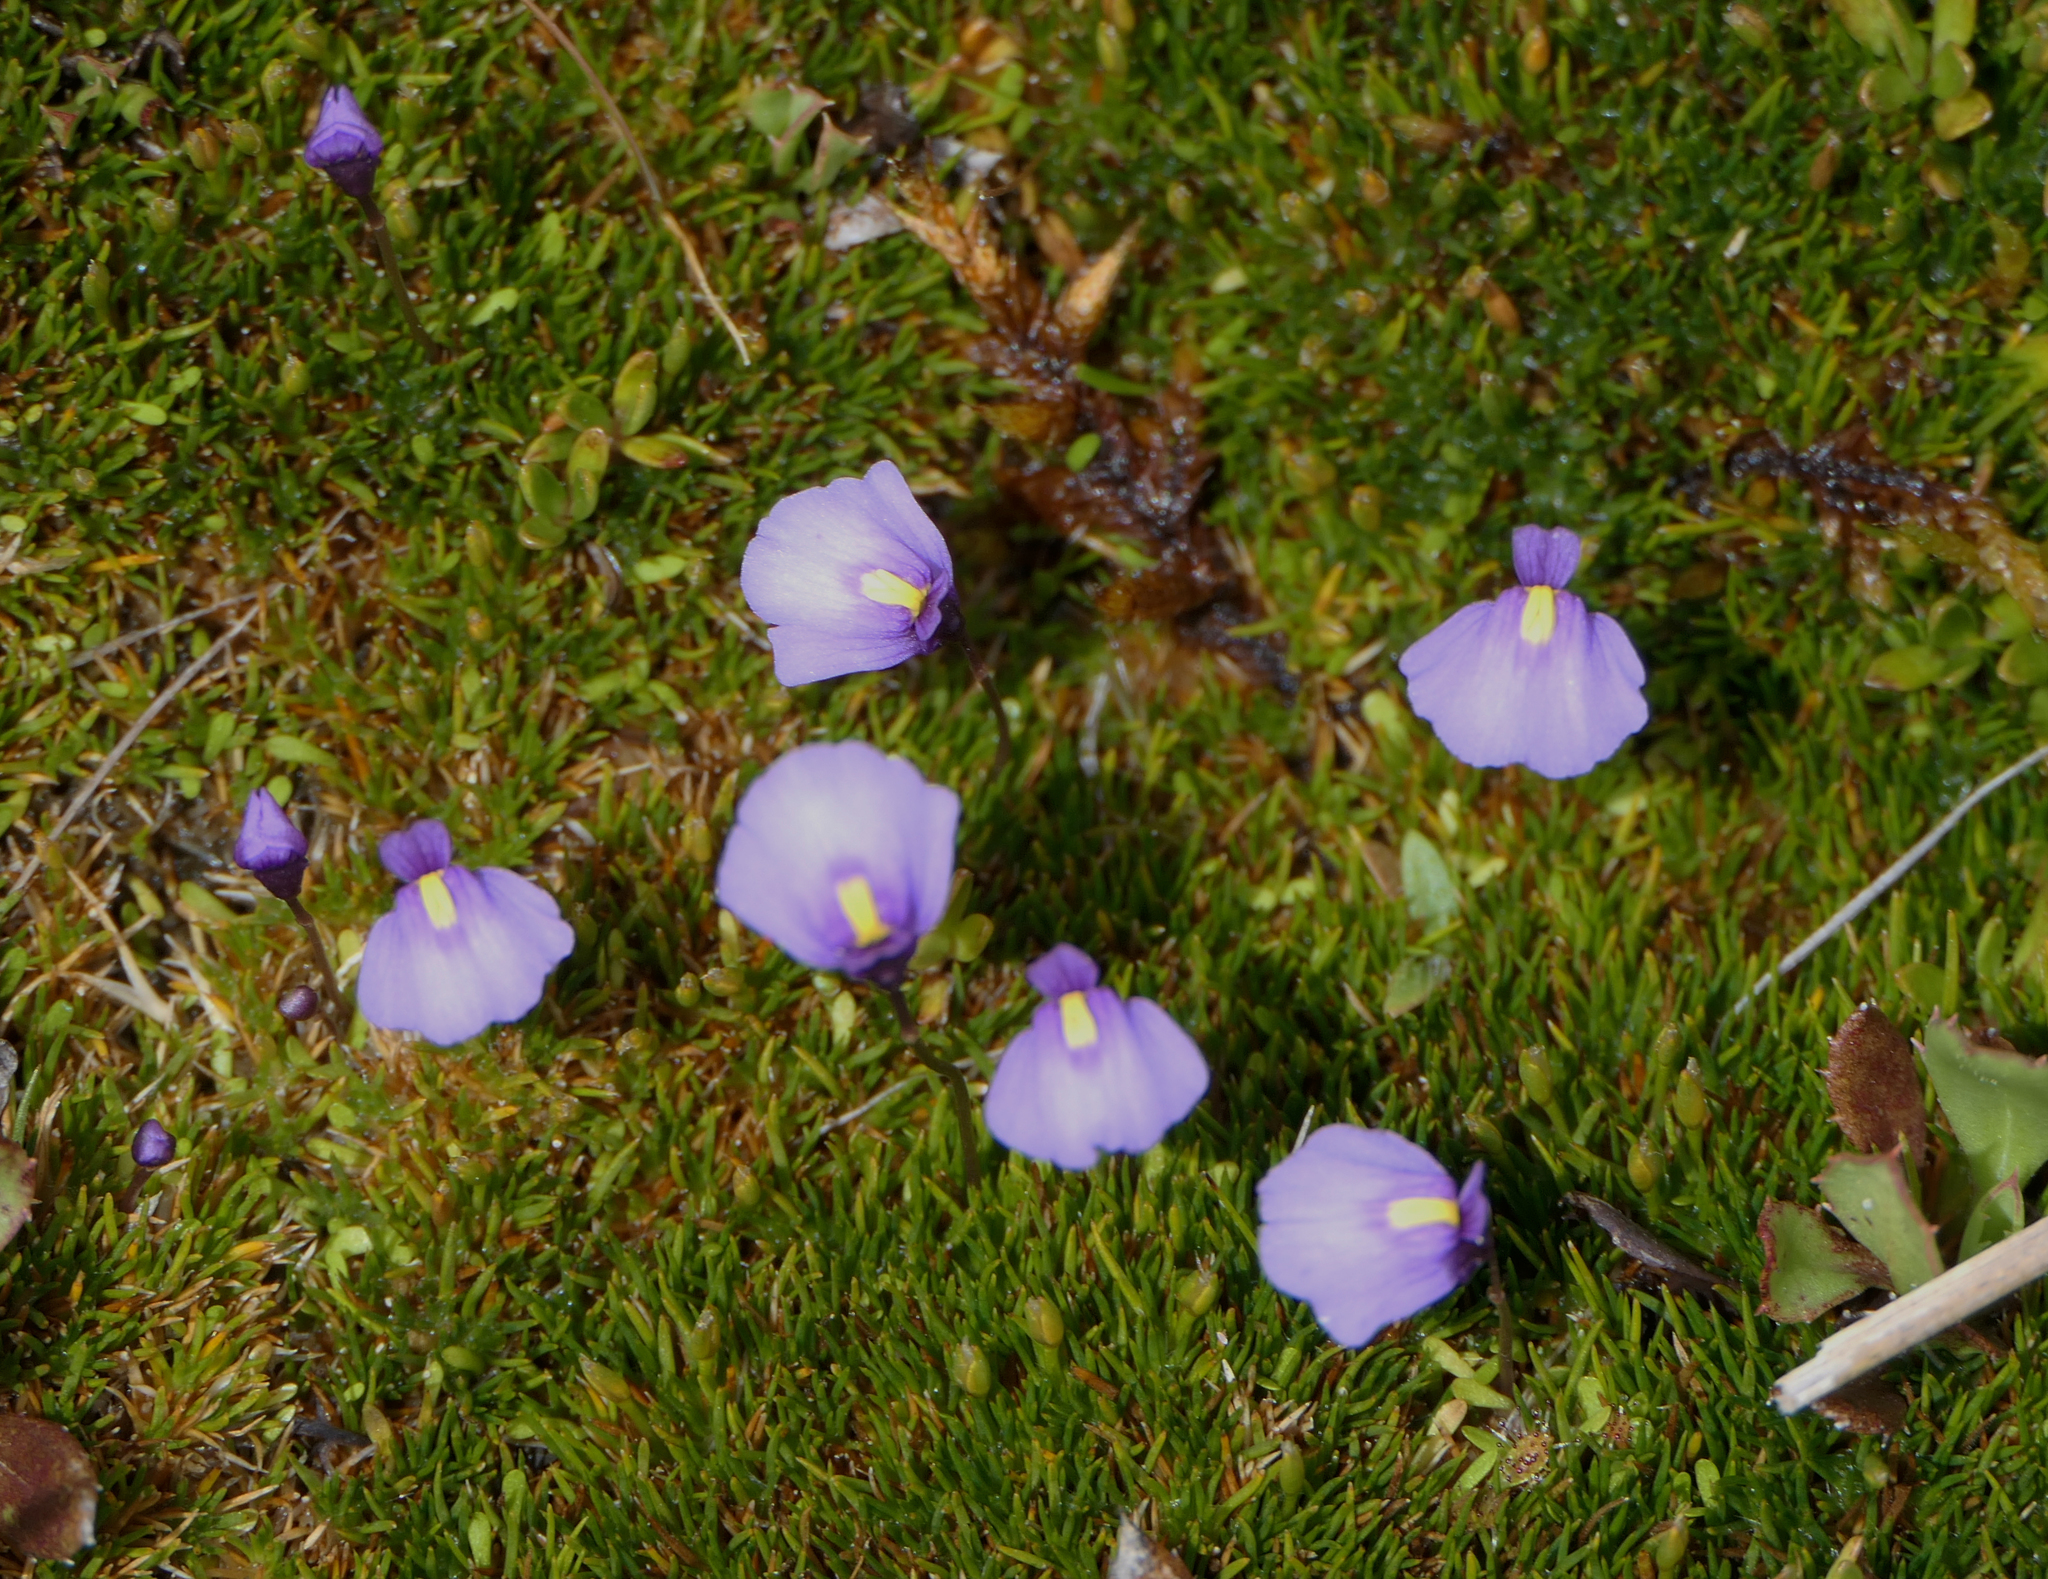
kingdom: Plantae
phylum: Tracheophyta
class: Magnoliopsida
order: Lamiales
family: Lentibulariaceae
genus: Utricularia
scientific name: Utricularia dichotoma
